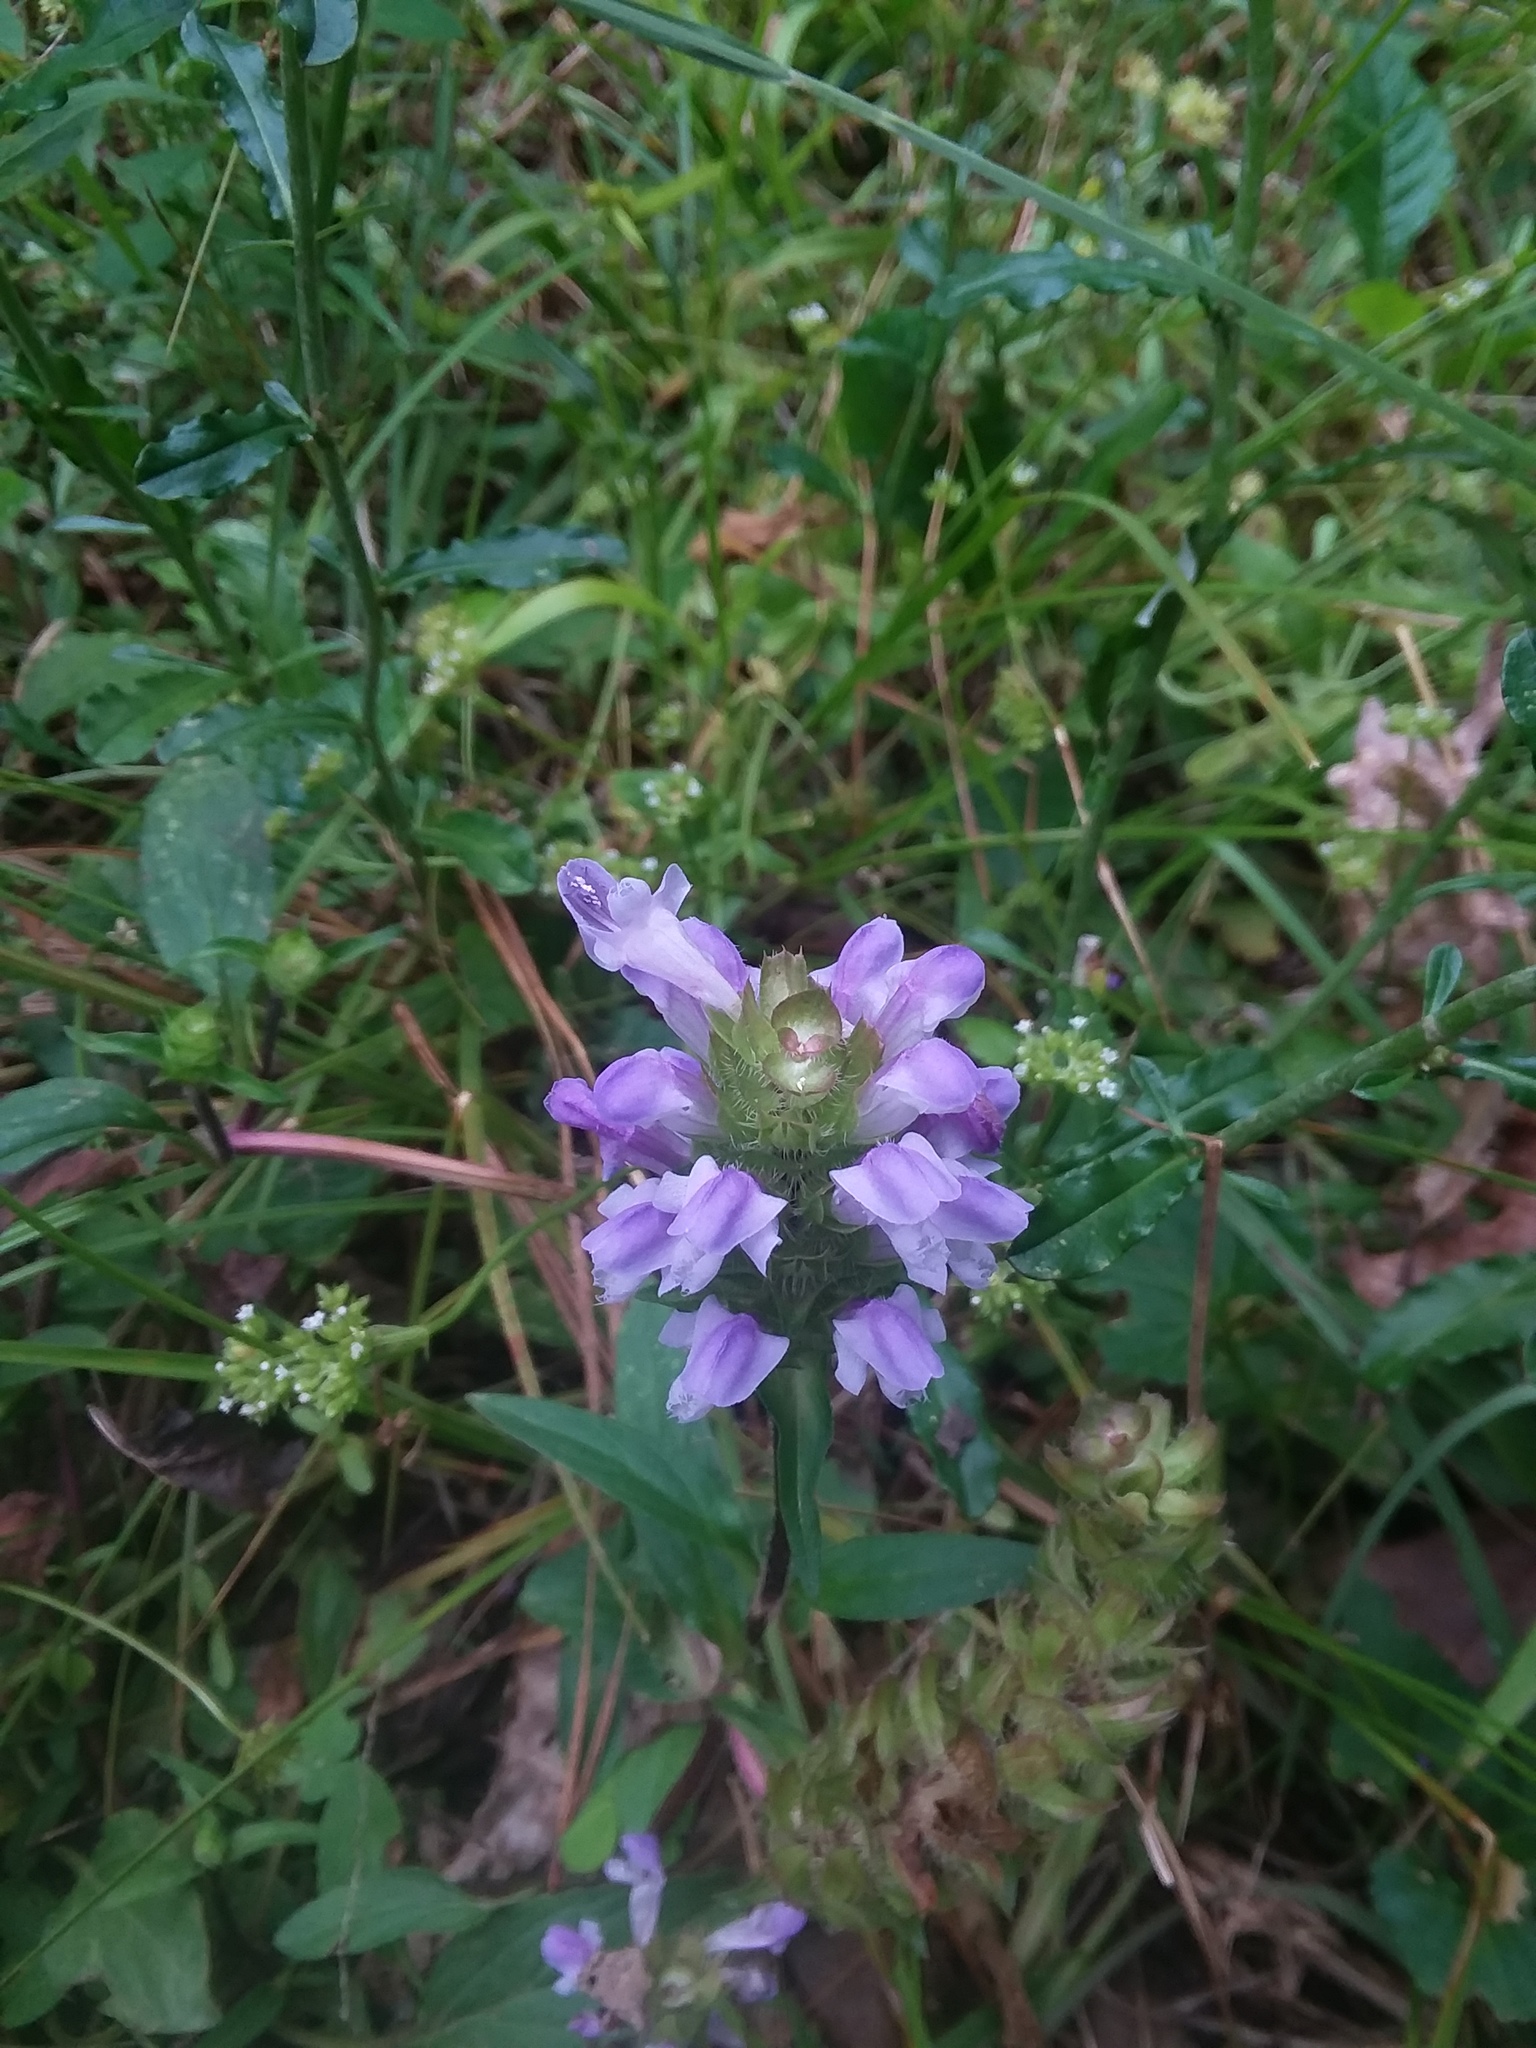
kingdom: Plantae
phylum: Tracheophyta
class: Magnoliopsida
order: Lamiales
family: Lamiaceae
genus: Prunella
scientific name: Prunella vulgaris
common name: Heal-all
